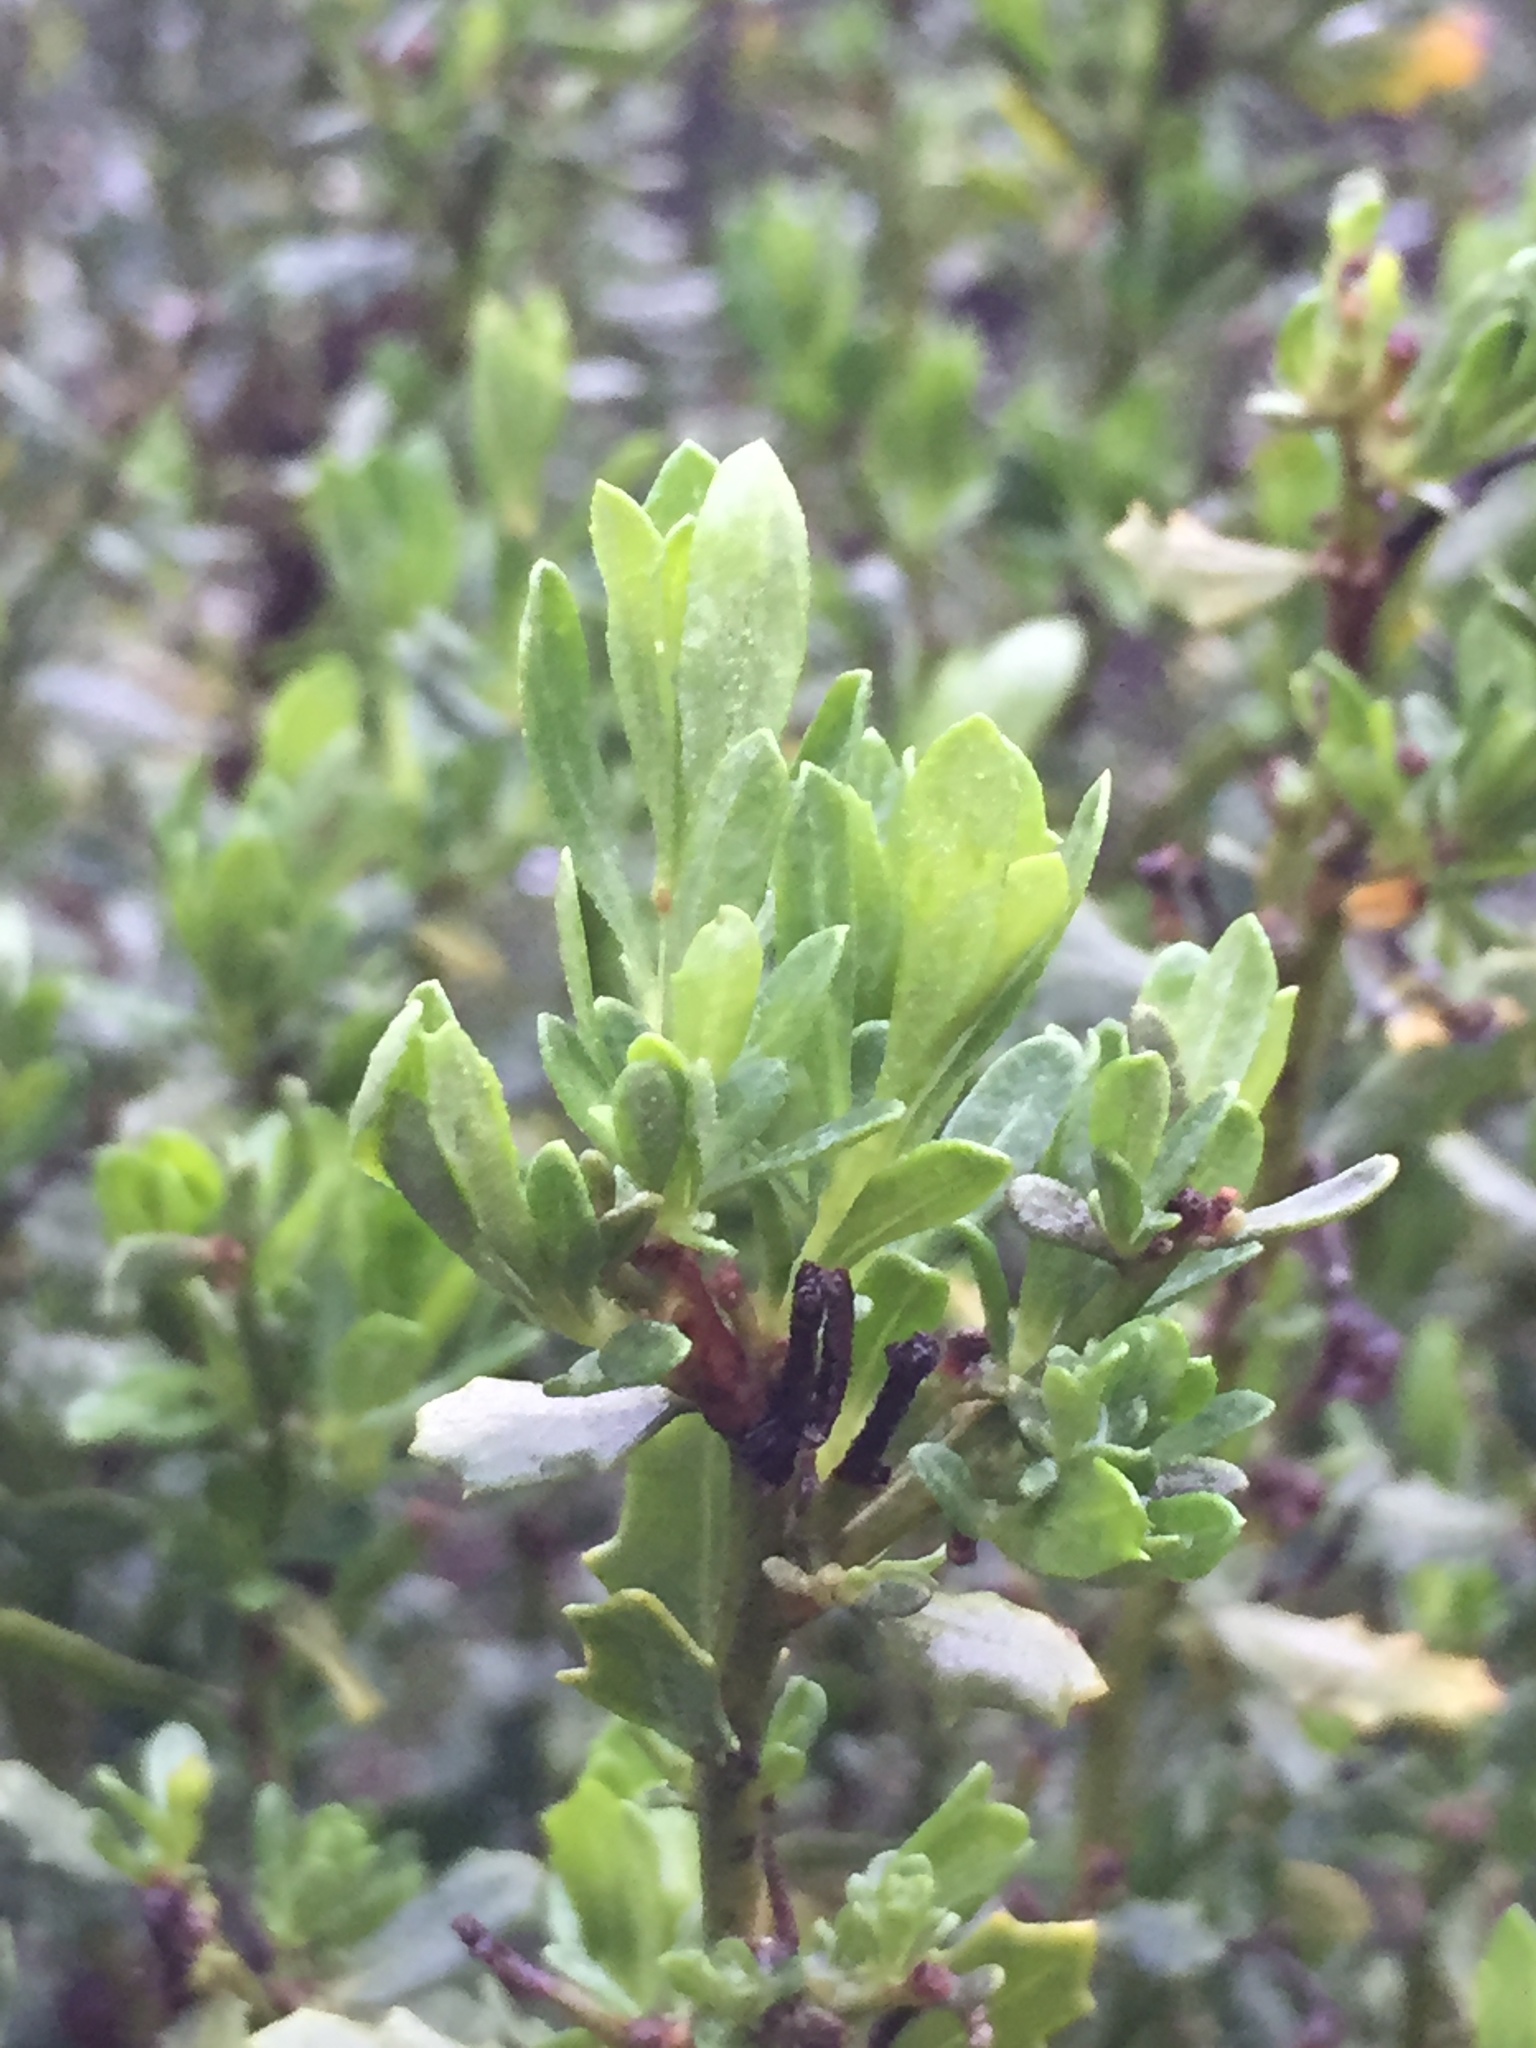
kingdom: Plantae
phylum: Tracheophyta
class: Magnoliopsida
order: Asterales
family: Asteraceae
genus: Baccharis
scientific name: Baccharis pilularis
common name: Coyotebrush
